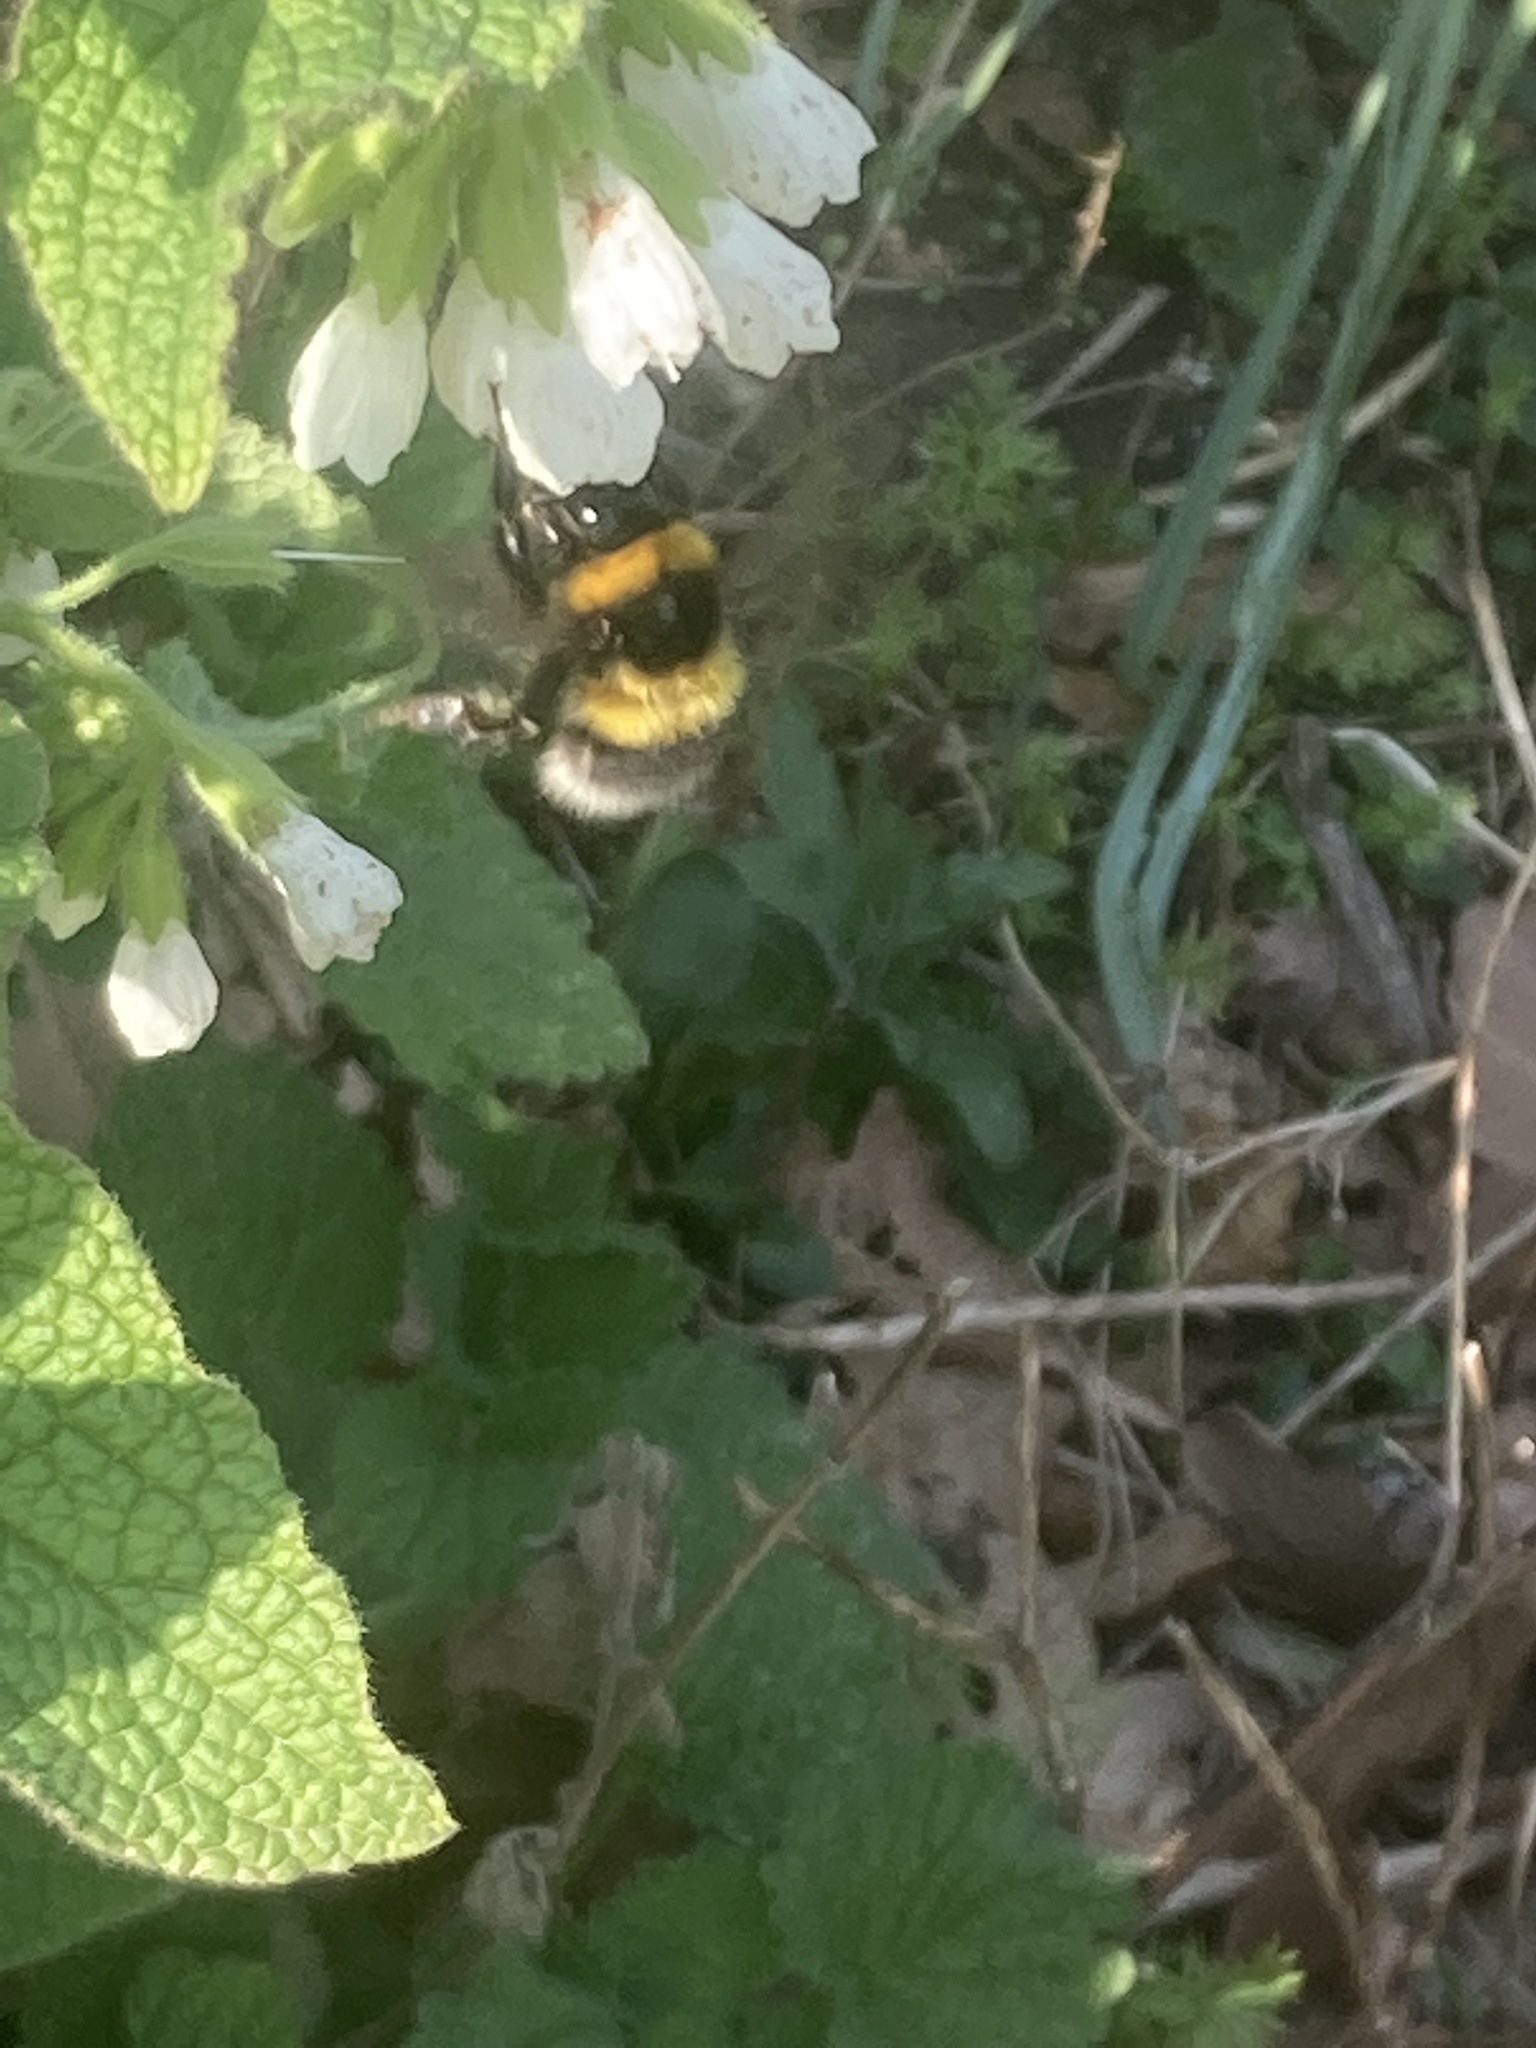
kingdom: Animalia
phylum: Arthropoda
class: Insecta
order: Hymenoptera
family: Apidae
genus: Bombus
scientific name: Bombus hortorum
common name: Garden bumblebee
